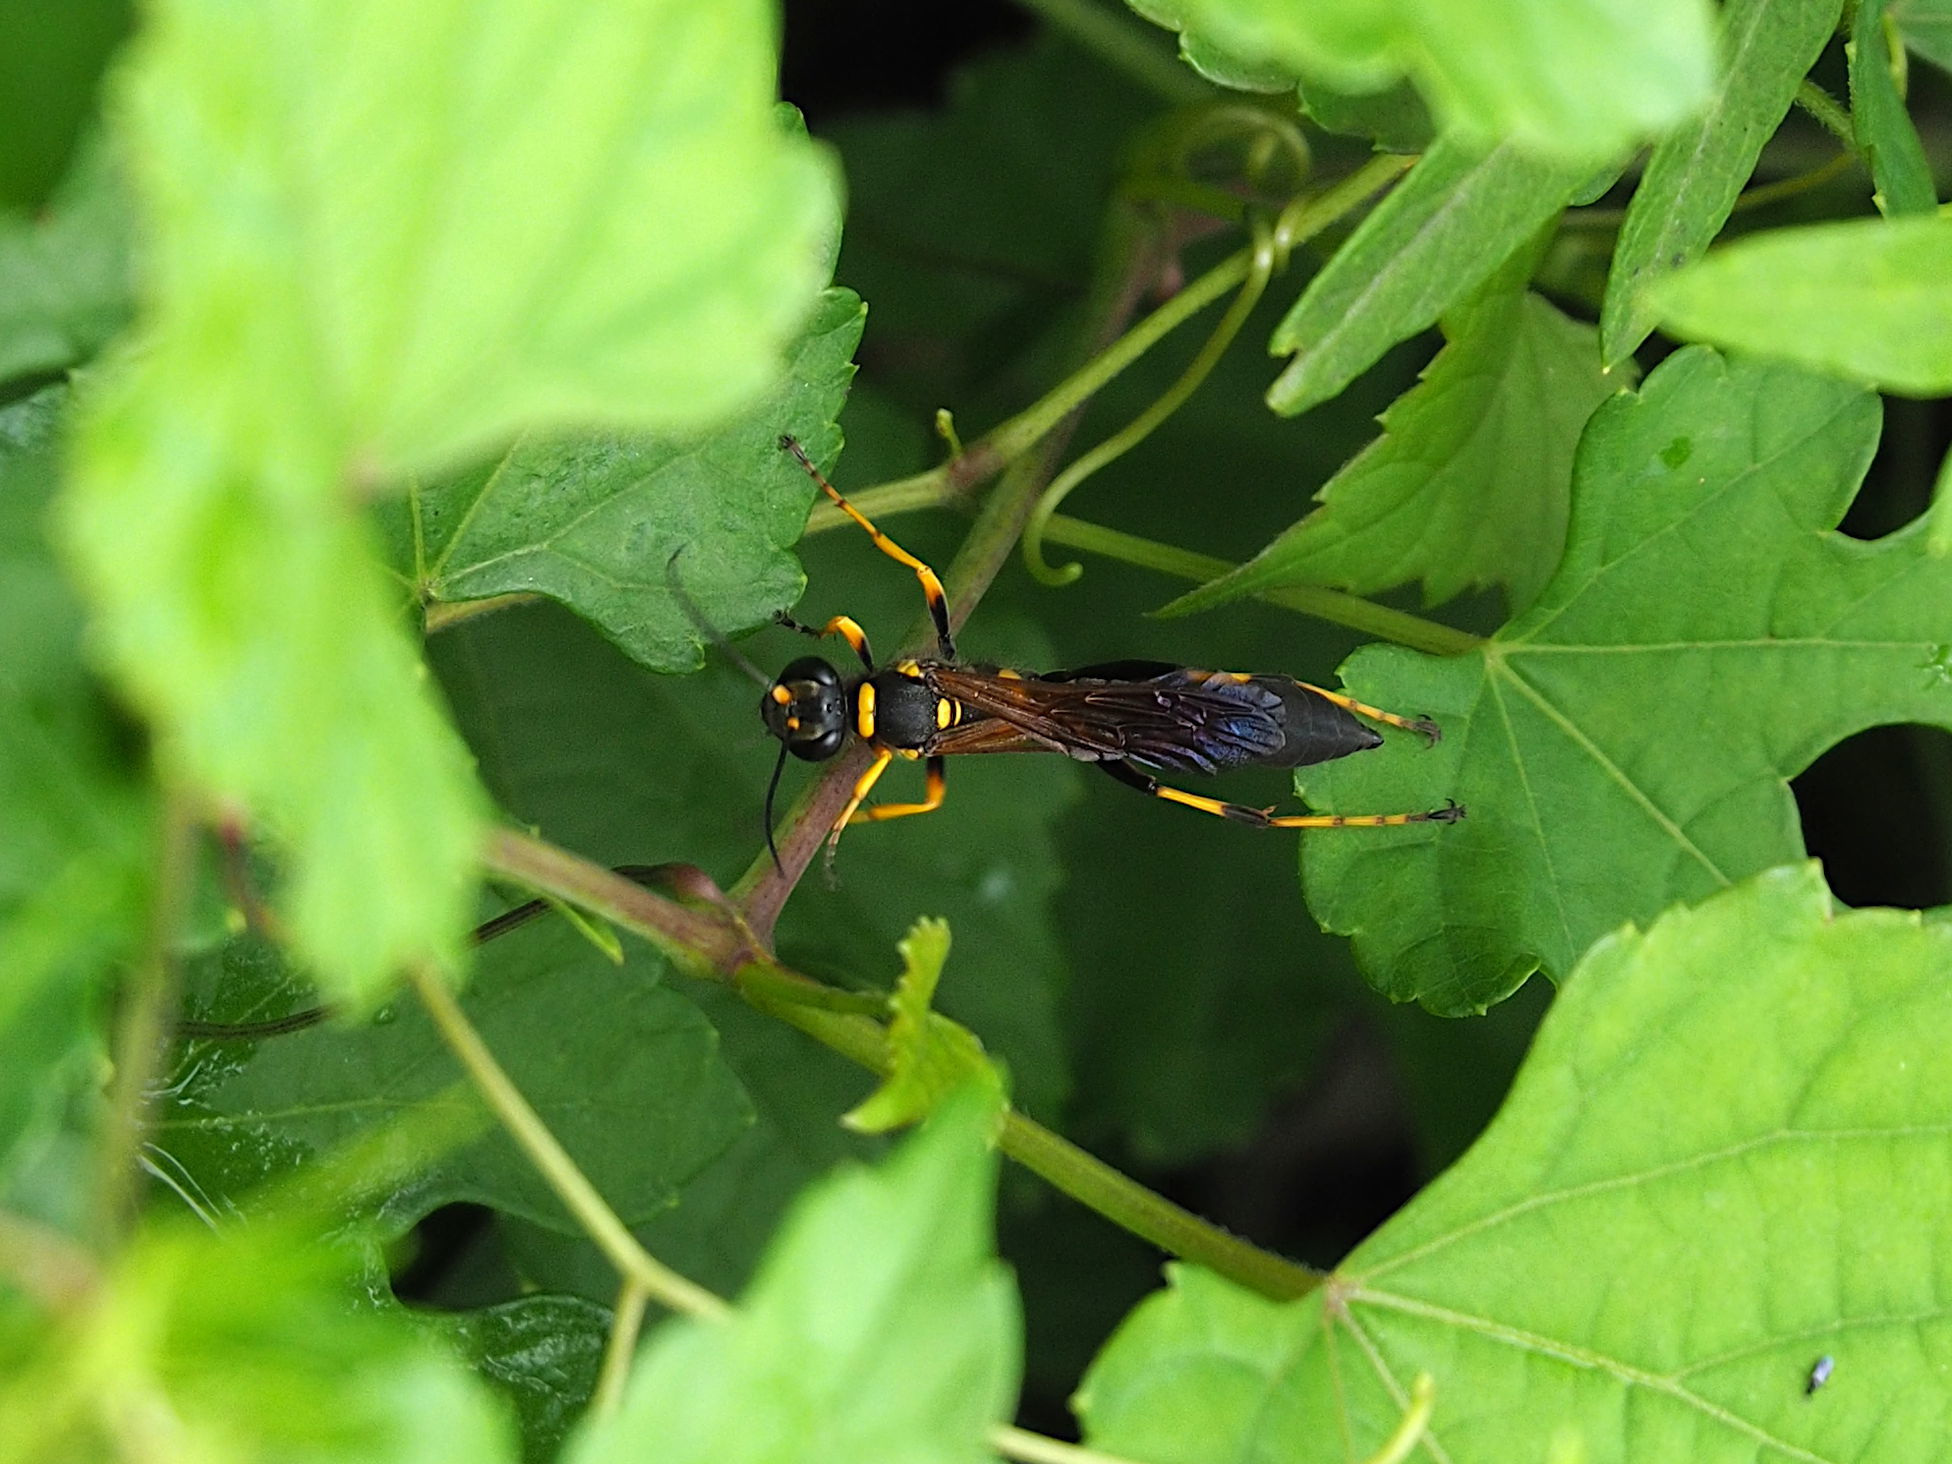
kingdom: Animalia
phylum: Arthropoda
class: Insecta
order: Hymenoptera
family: Sphecidae
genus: Sceliphron
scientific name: Sceliphron caementarium
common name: Mud dauber
